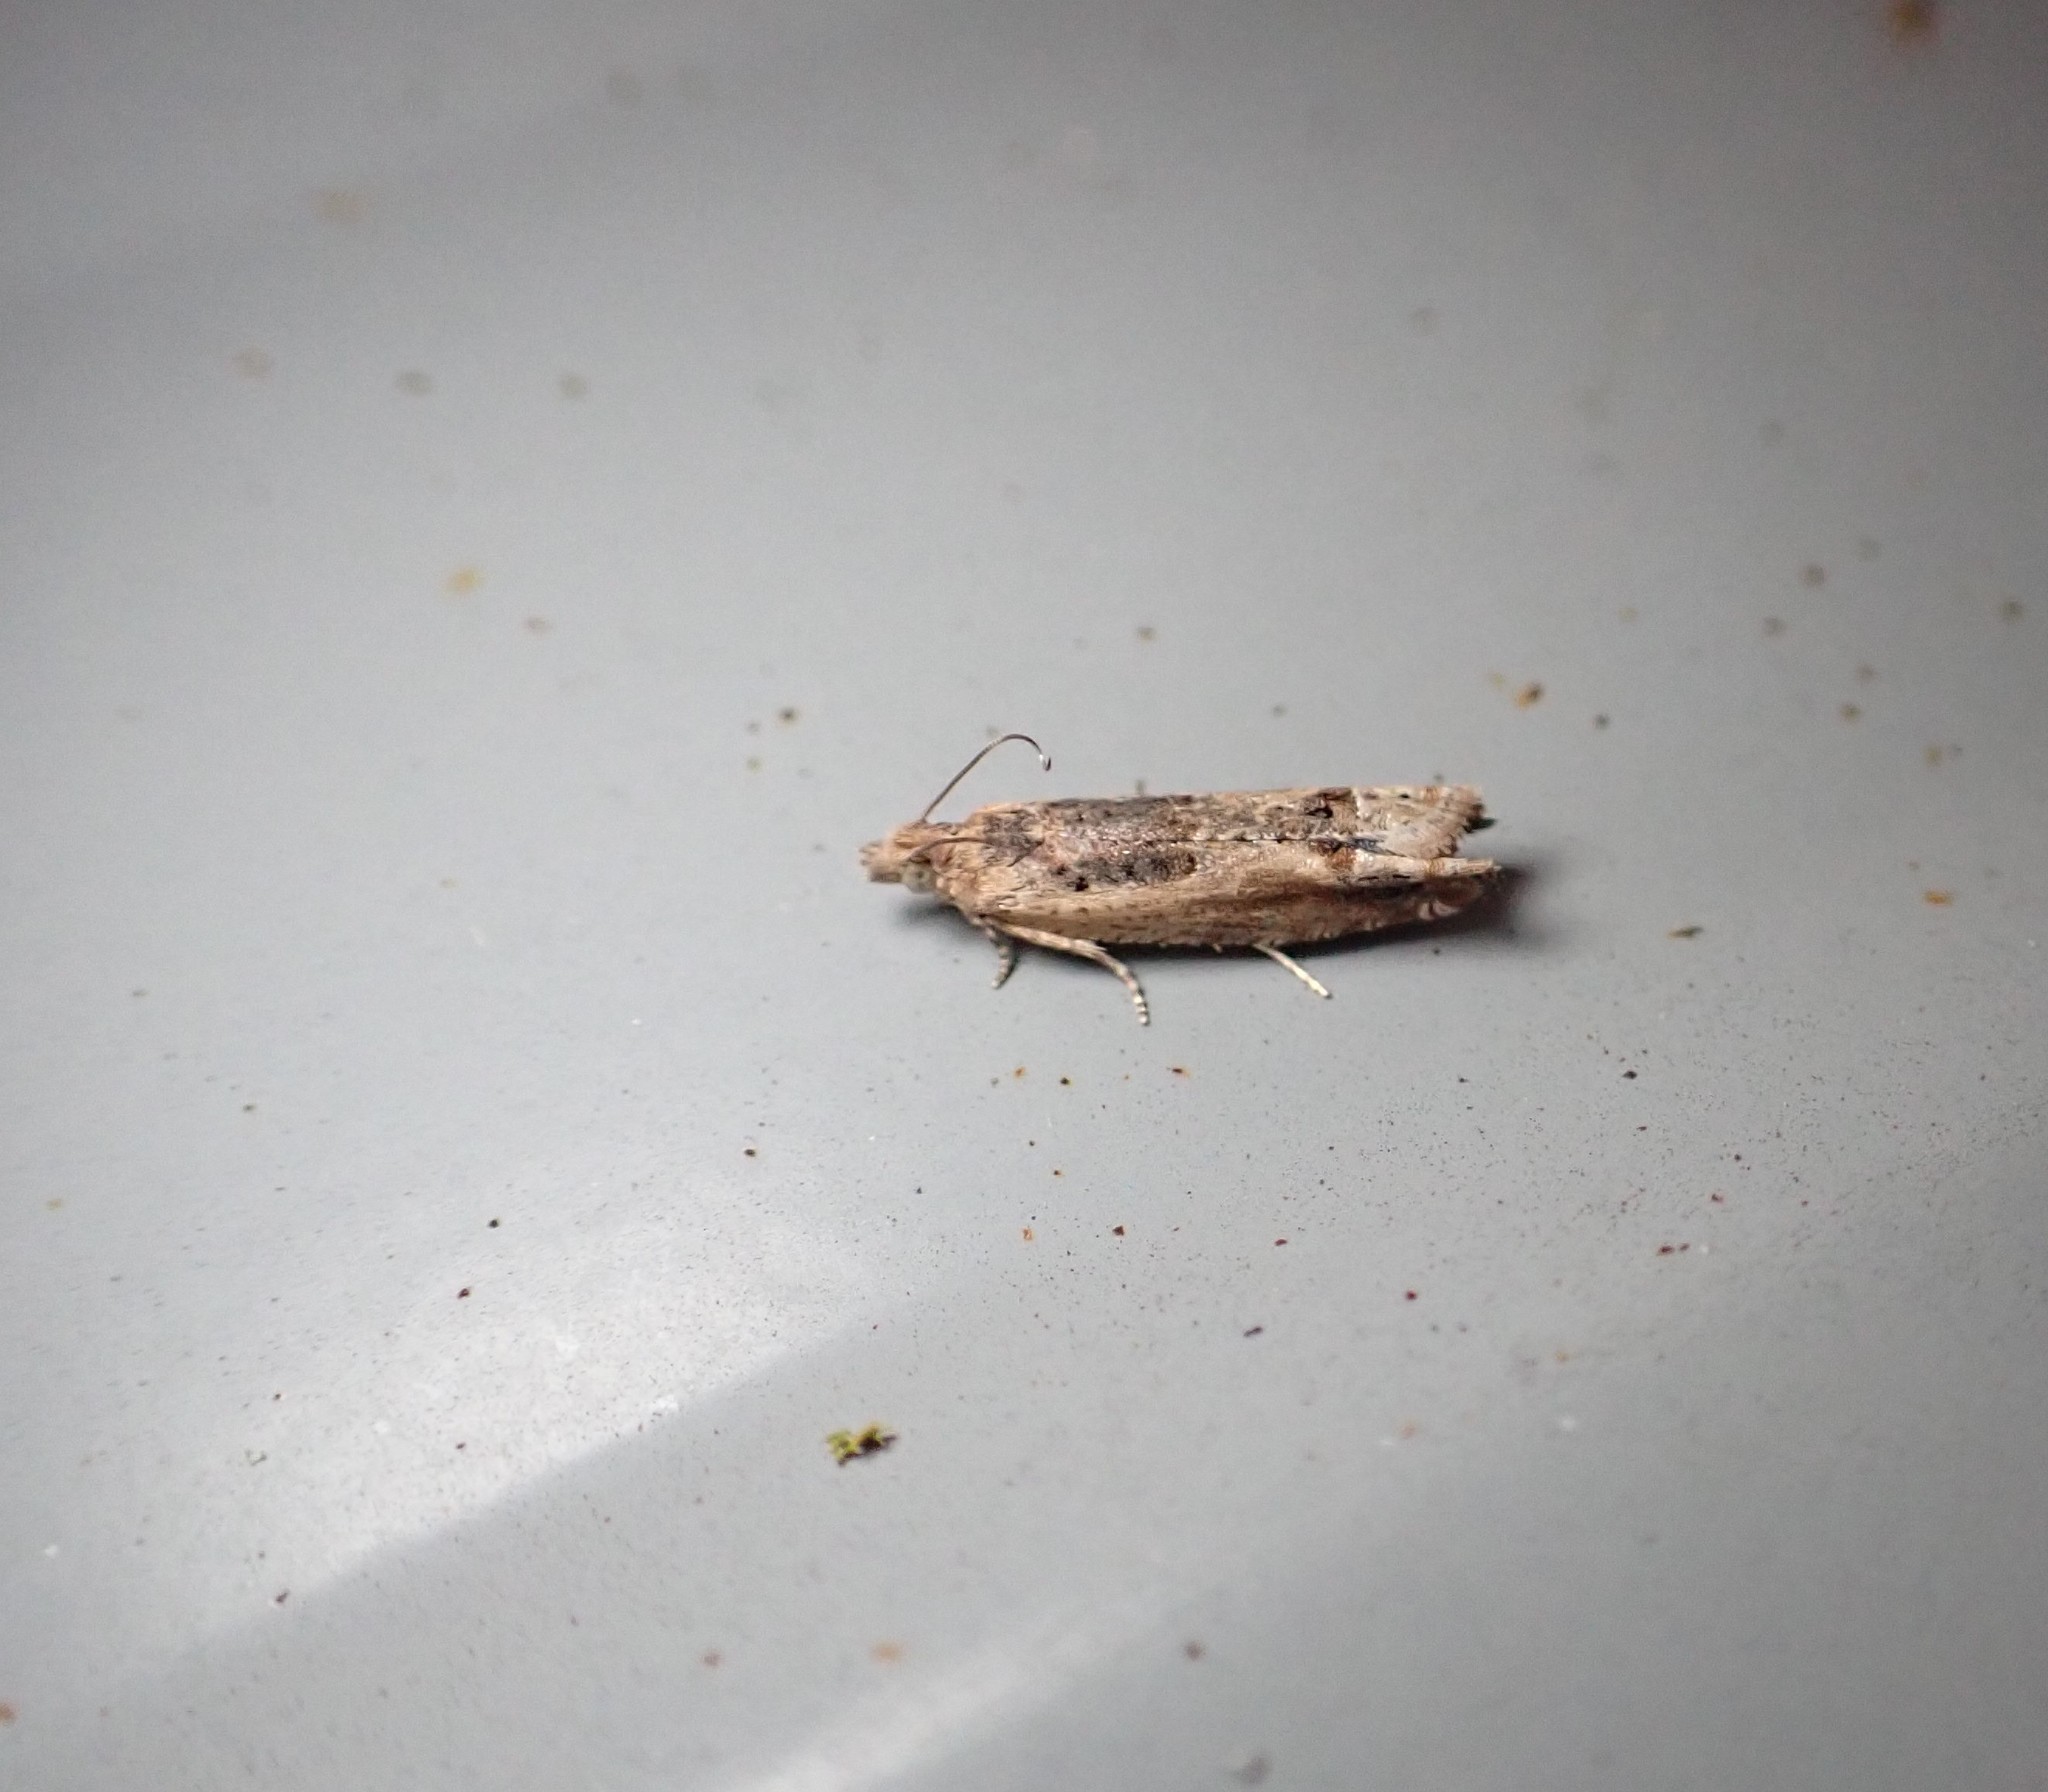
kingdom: Animalia
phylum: Arthropoda
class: Insecta
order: Lepidoptera
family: Tortricidae
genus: Crocidosema
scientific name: Crocidosema plebejana
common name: Southern bell
